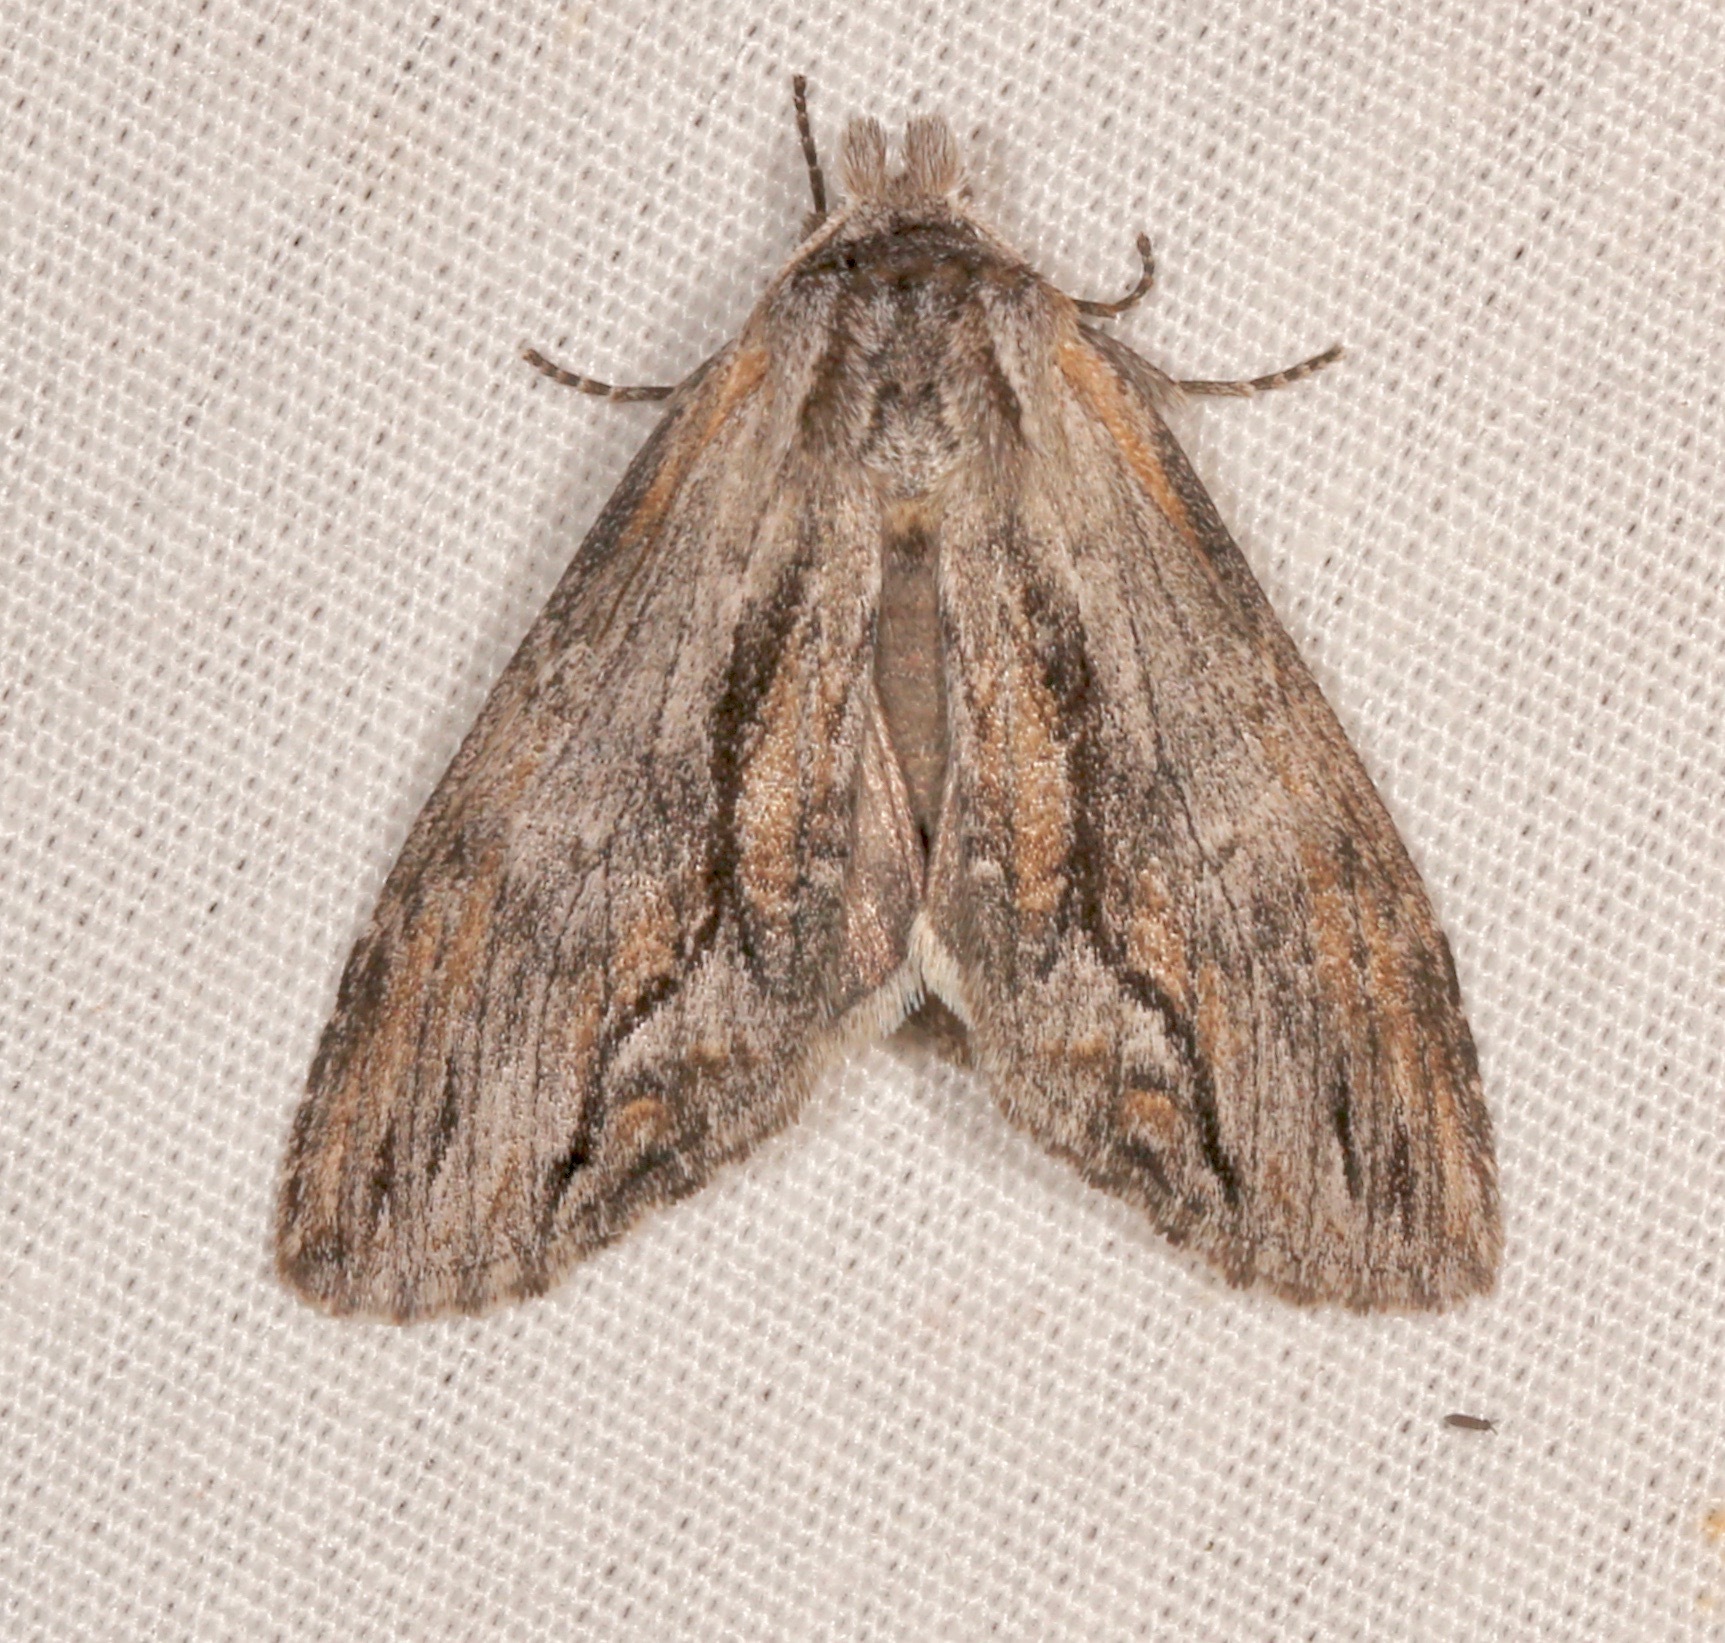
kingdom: Animalia
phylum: Arthropoda
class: Insecta
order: Lepidoptera
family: Notodontidae
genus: Notela
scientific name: Notela jaliscana
